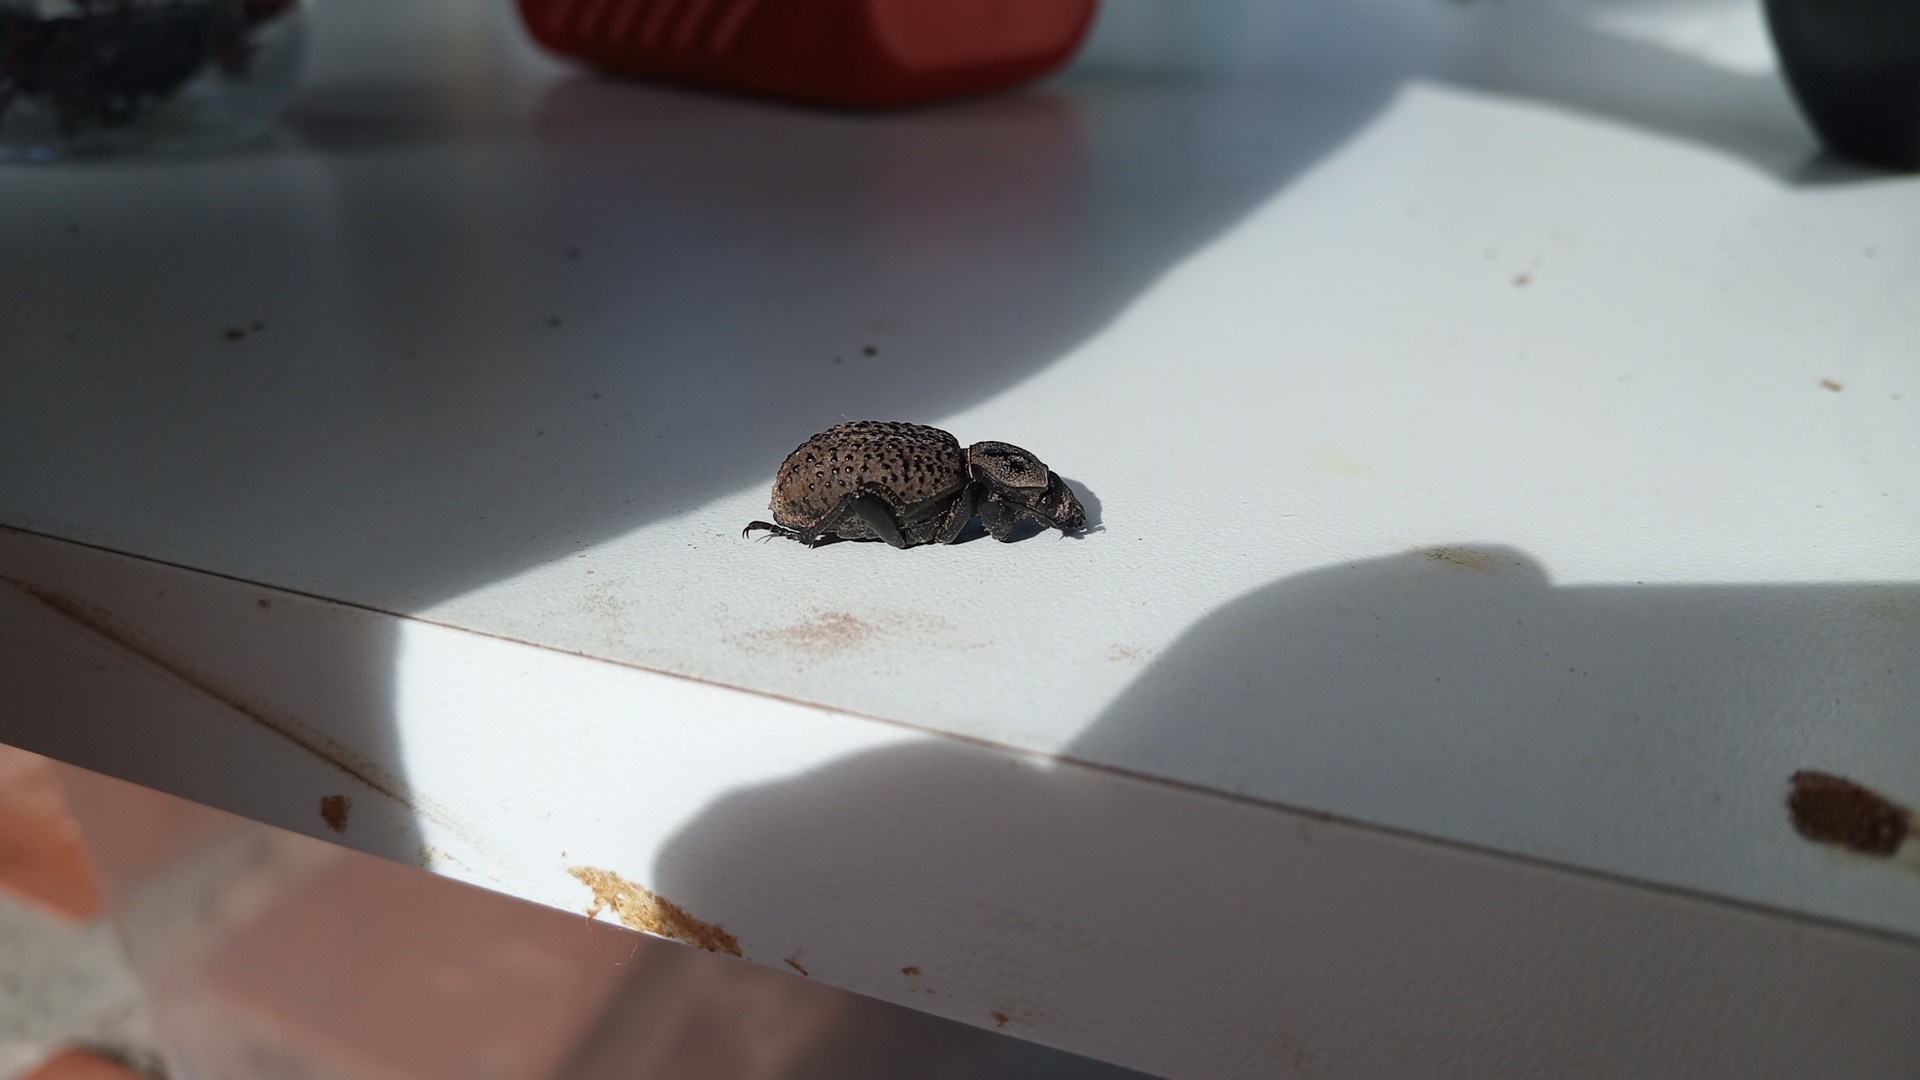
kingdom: Animalia
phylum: Arthropoda
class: Insecta
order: Coleoptera
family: Tenebrionidae
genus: Scotobius
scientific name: Scotobius pilularius
